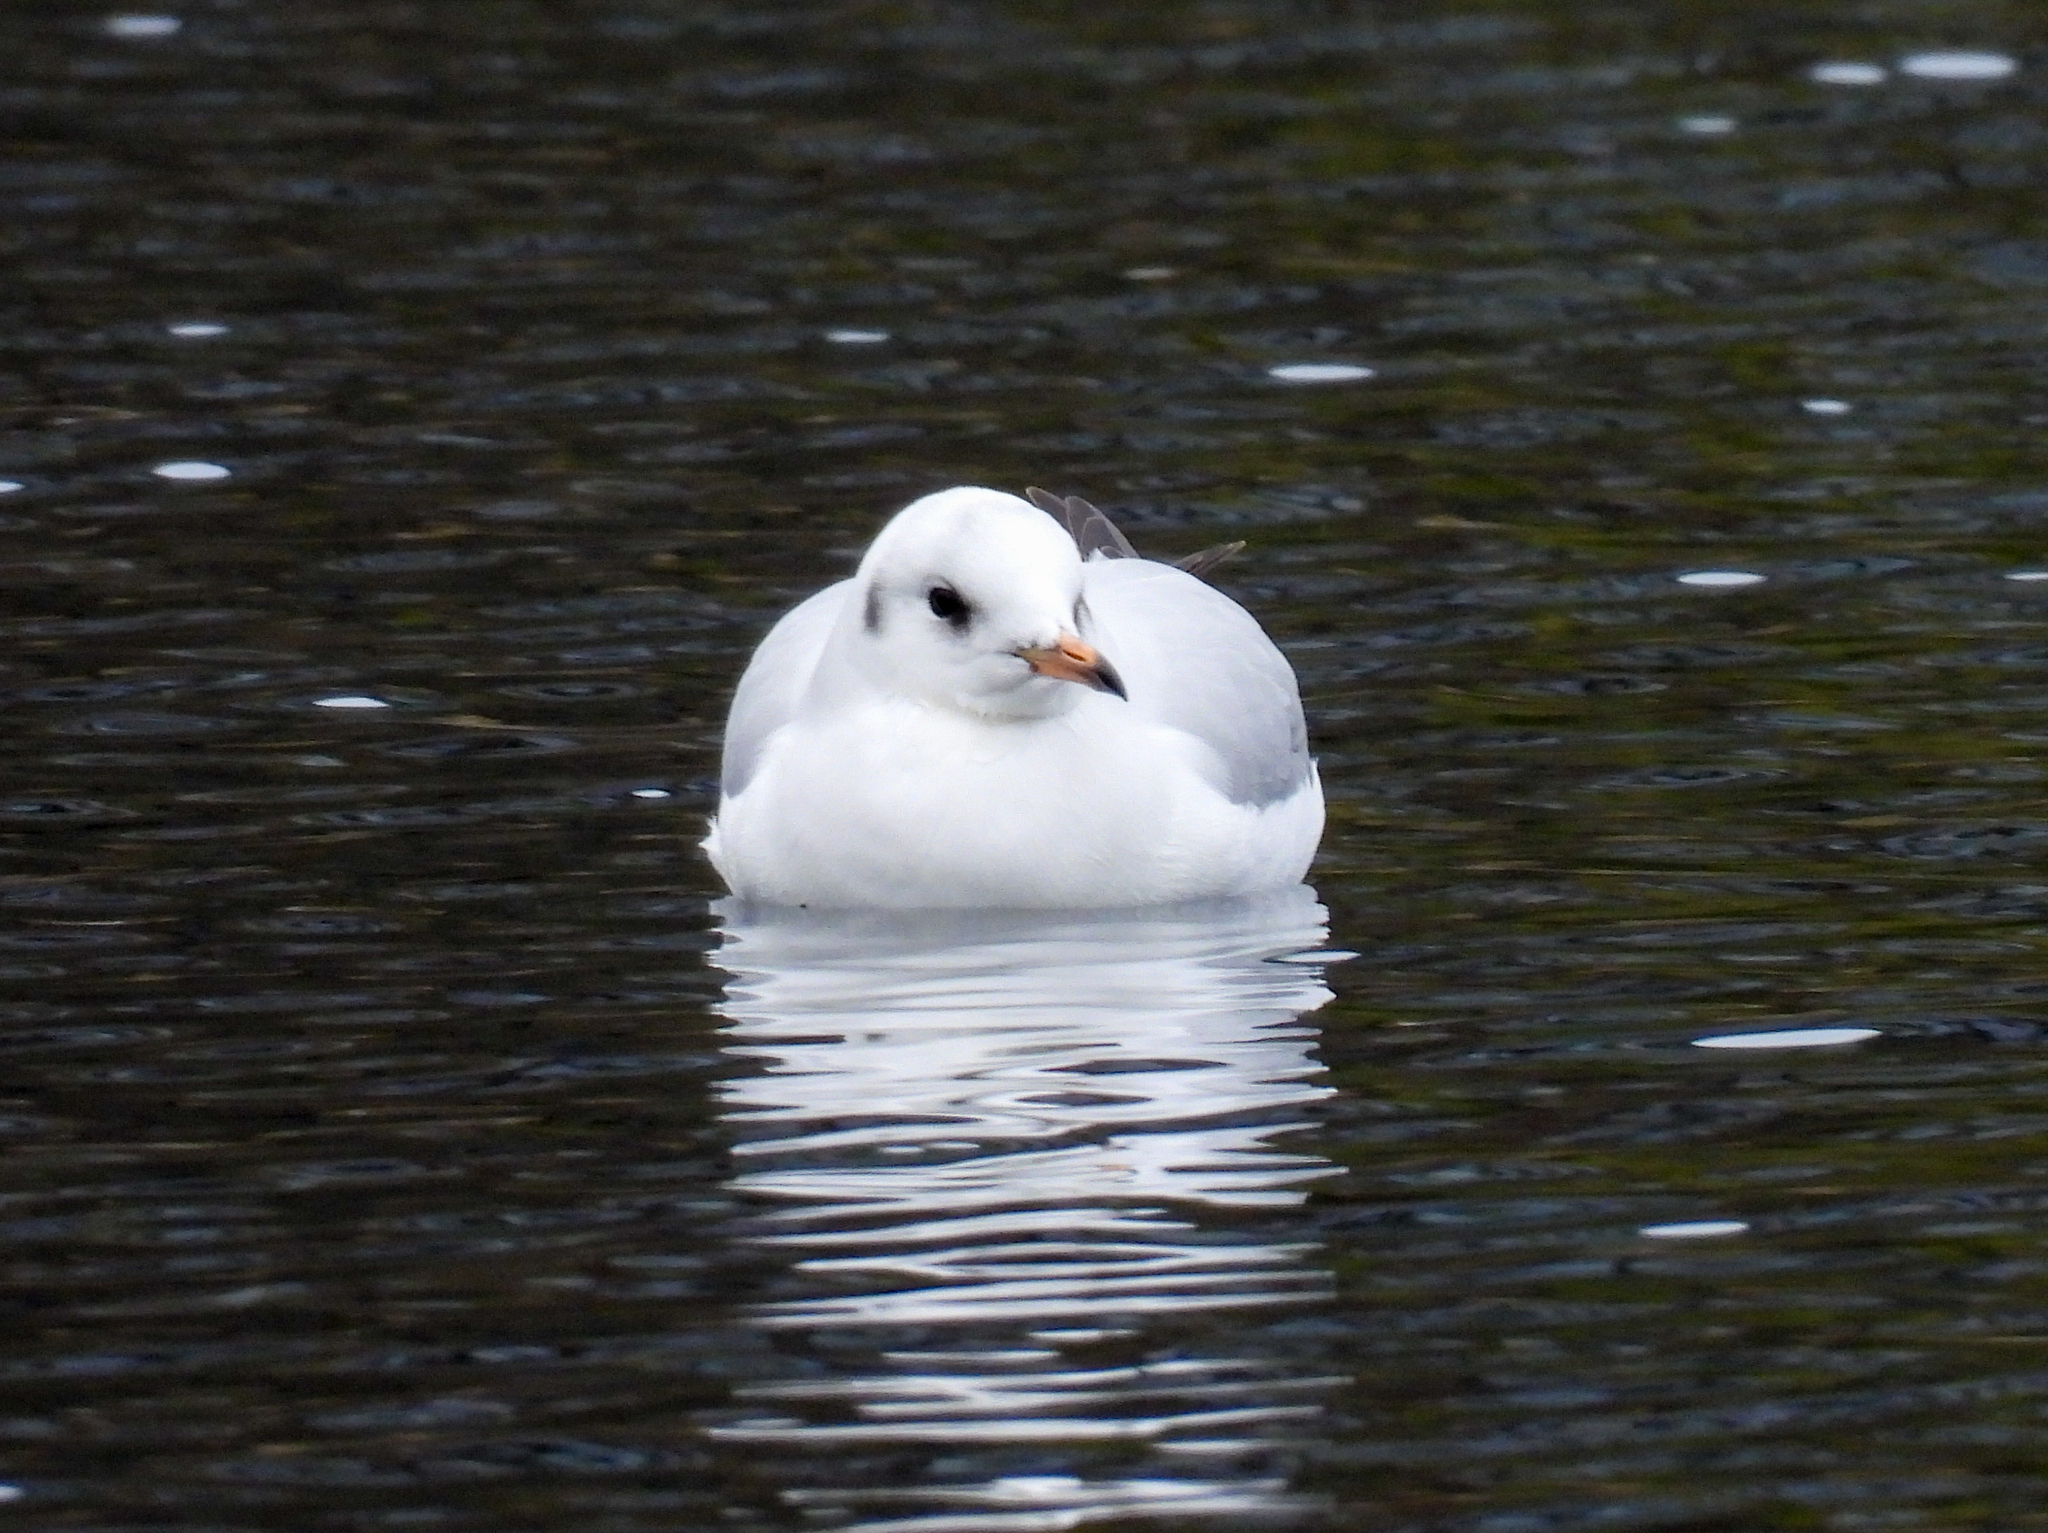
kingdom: Animalia
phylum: Chordata
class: Aves
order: Charadriiformes
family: Laridae
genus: Chroicocephalus
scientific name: Chroicocephalus ridibundus
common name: Black-headed gull
